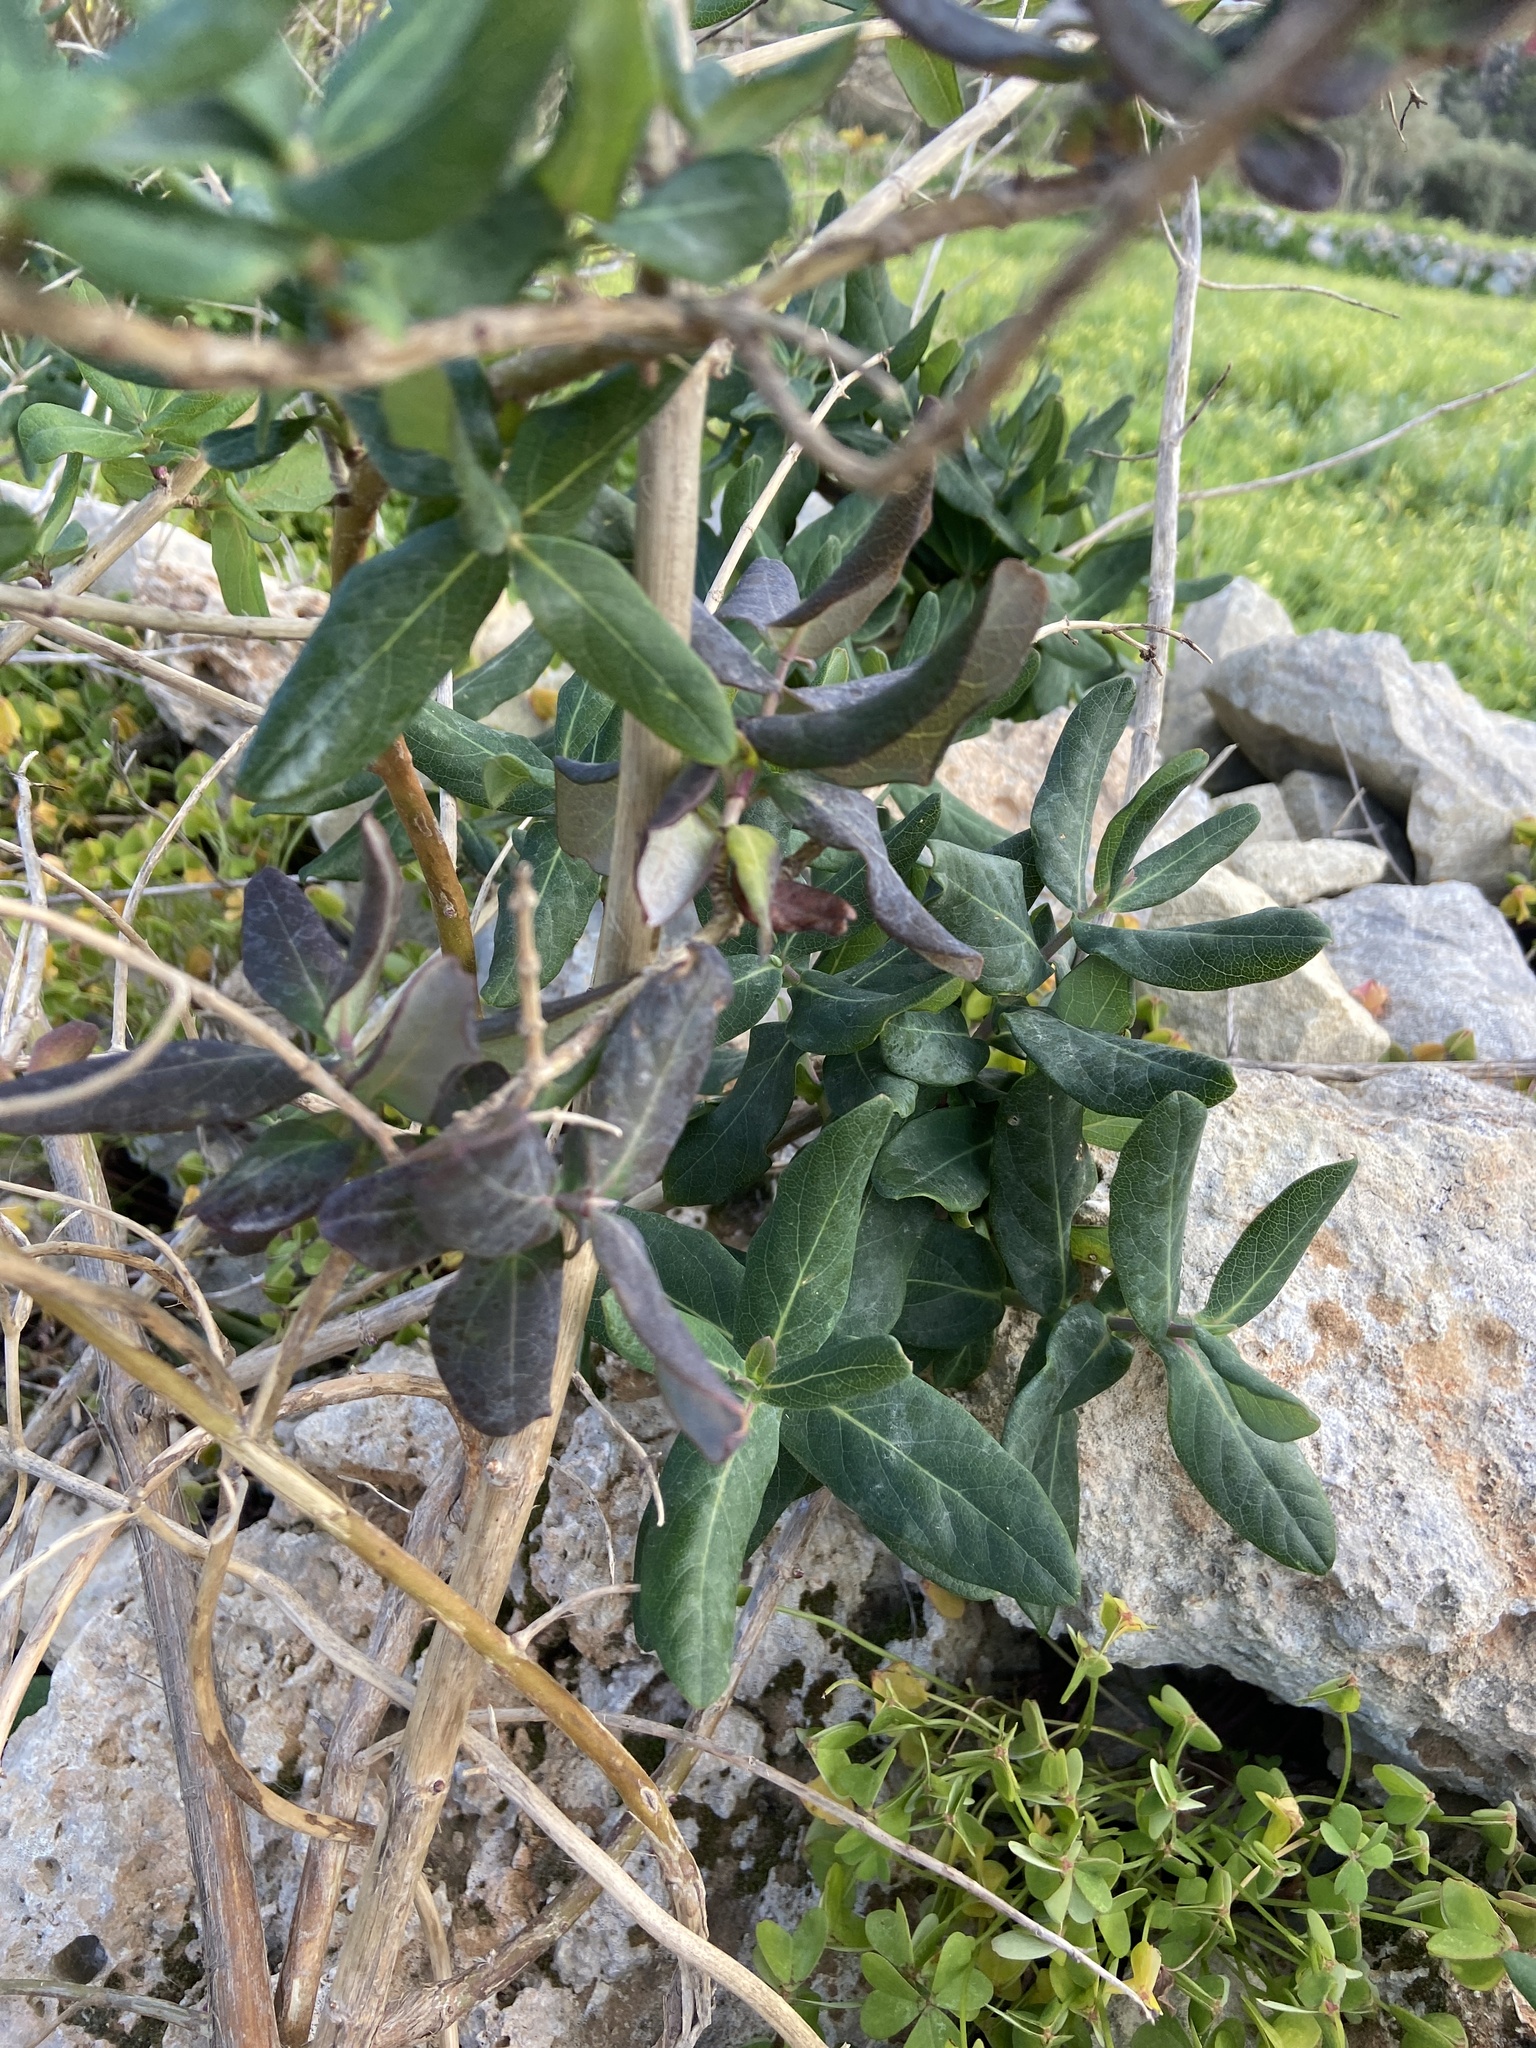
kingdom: Plantae
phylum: Tracheophyta
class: Magnoliopsida
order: Dipsacales
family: Caprifoliaceae
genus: Lonicera
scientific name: Lonicera implexa
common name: Minorca honeysuckle
